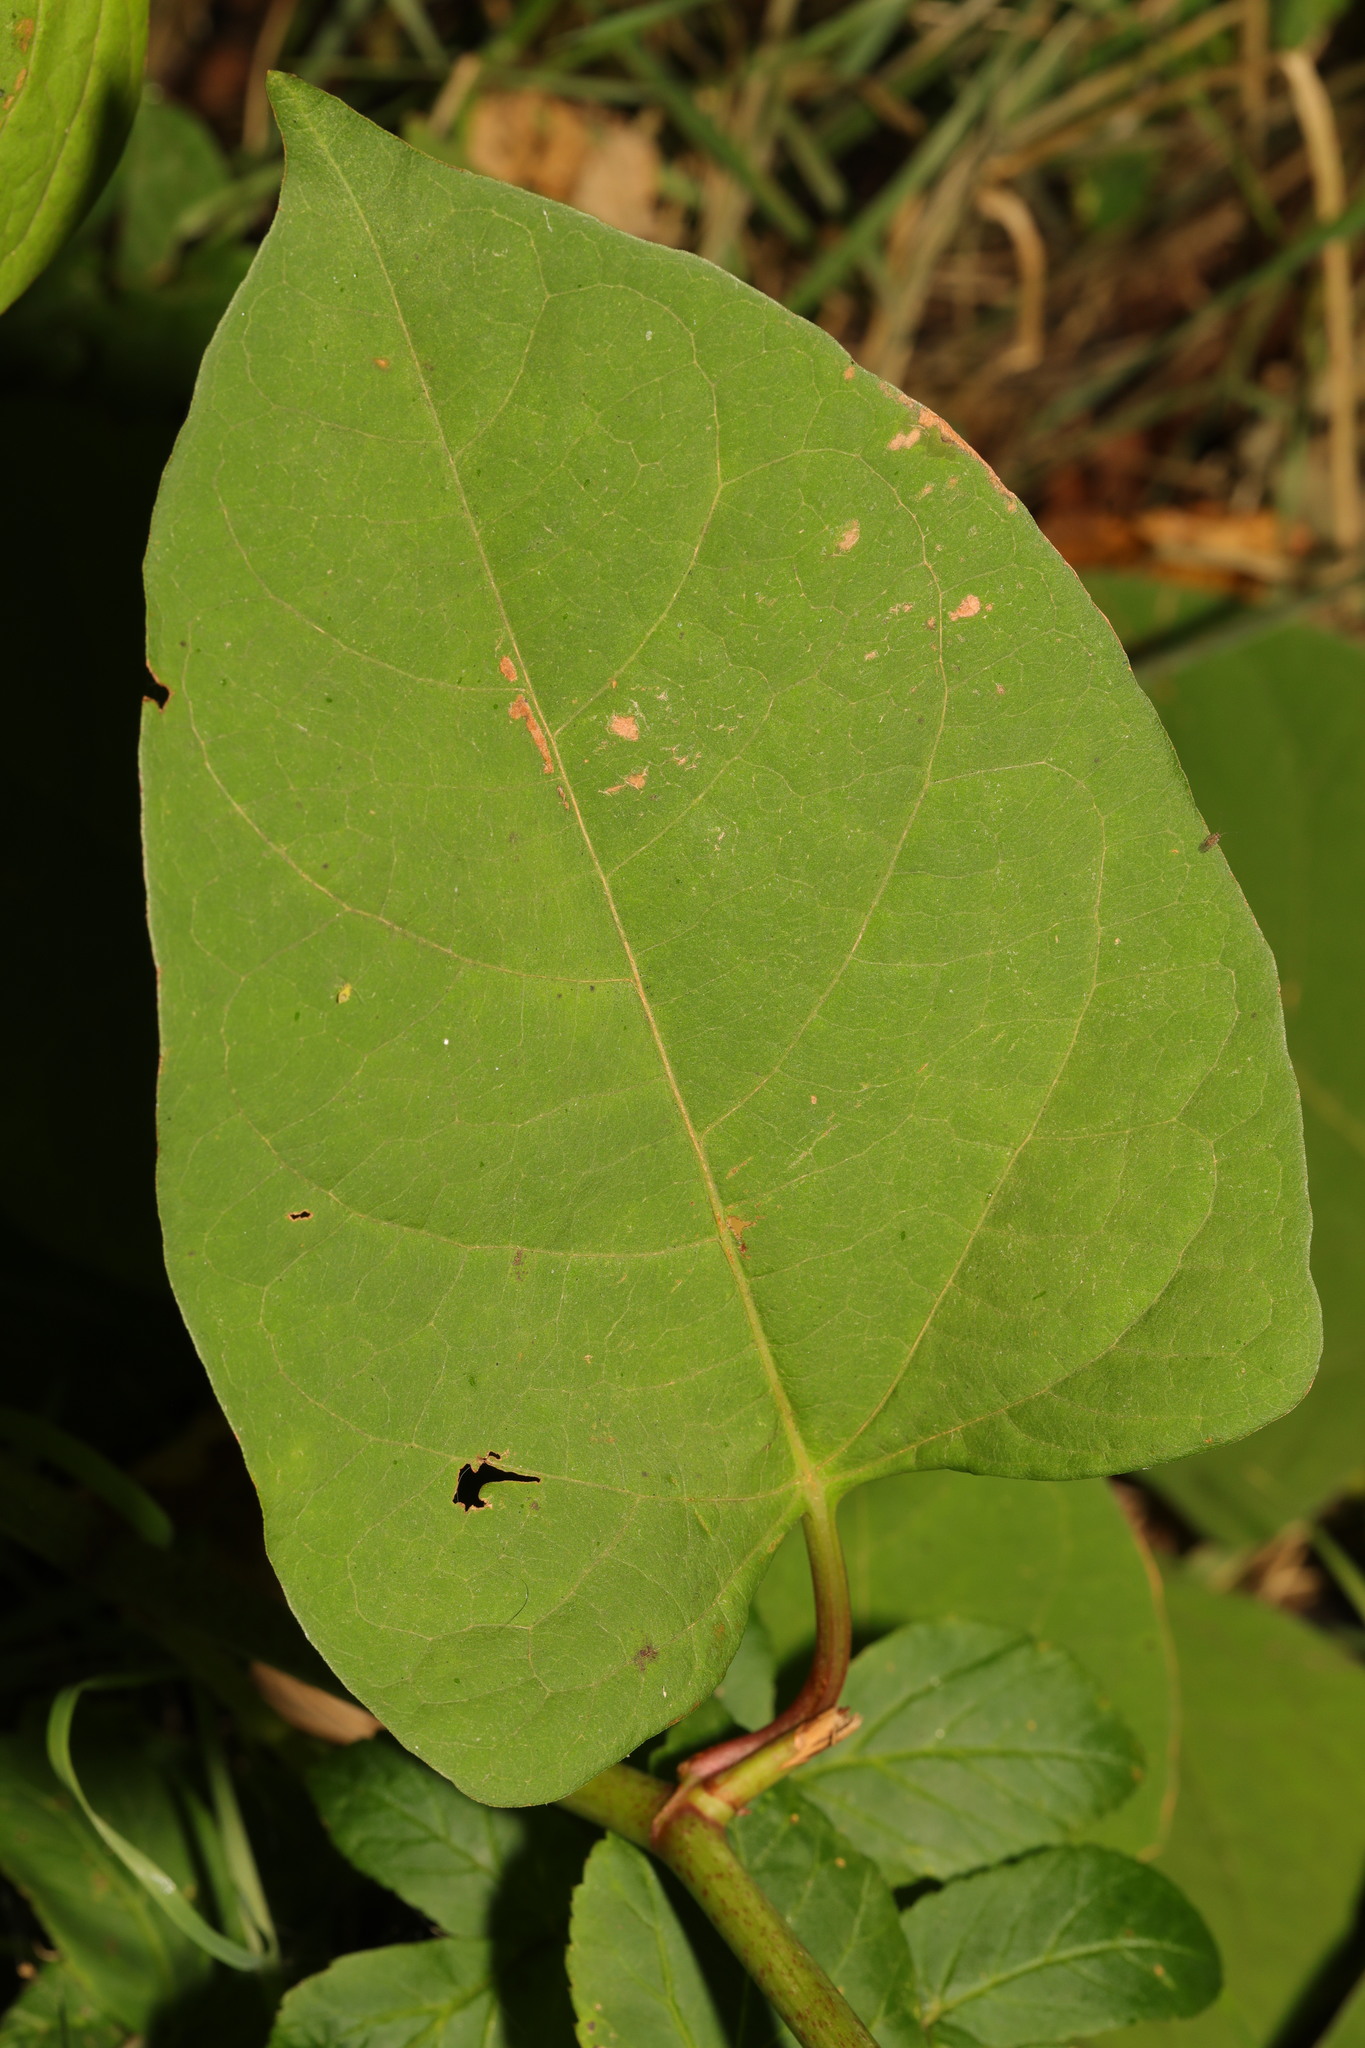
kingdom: Plantae
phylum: Tracheophyta
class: Magnoliopsida
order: Caryophyllales
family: Polygonaceae
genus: Reynoutria
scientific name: Reynoutria japonica
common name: Japanese knotweed
